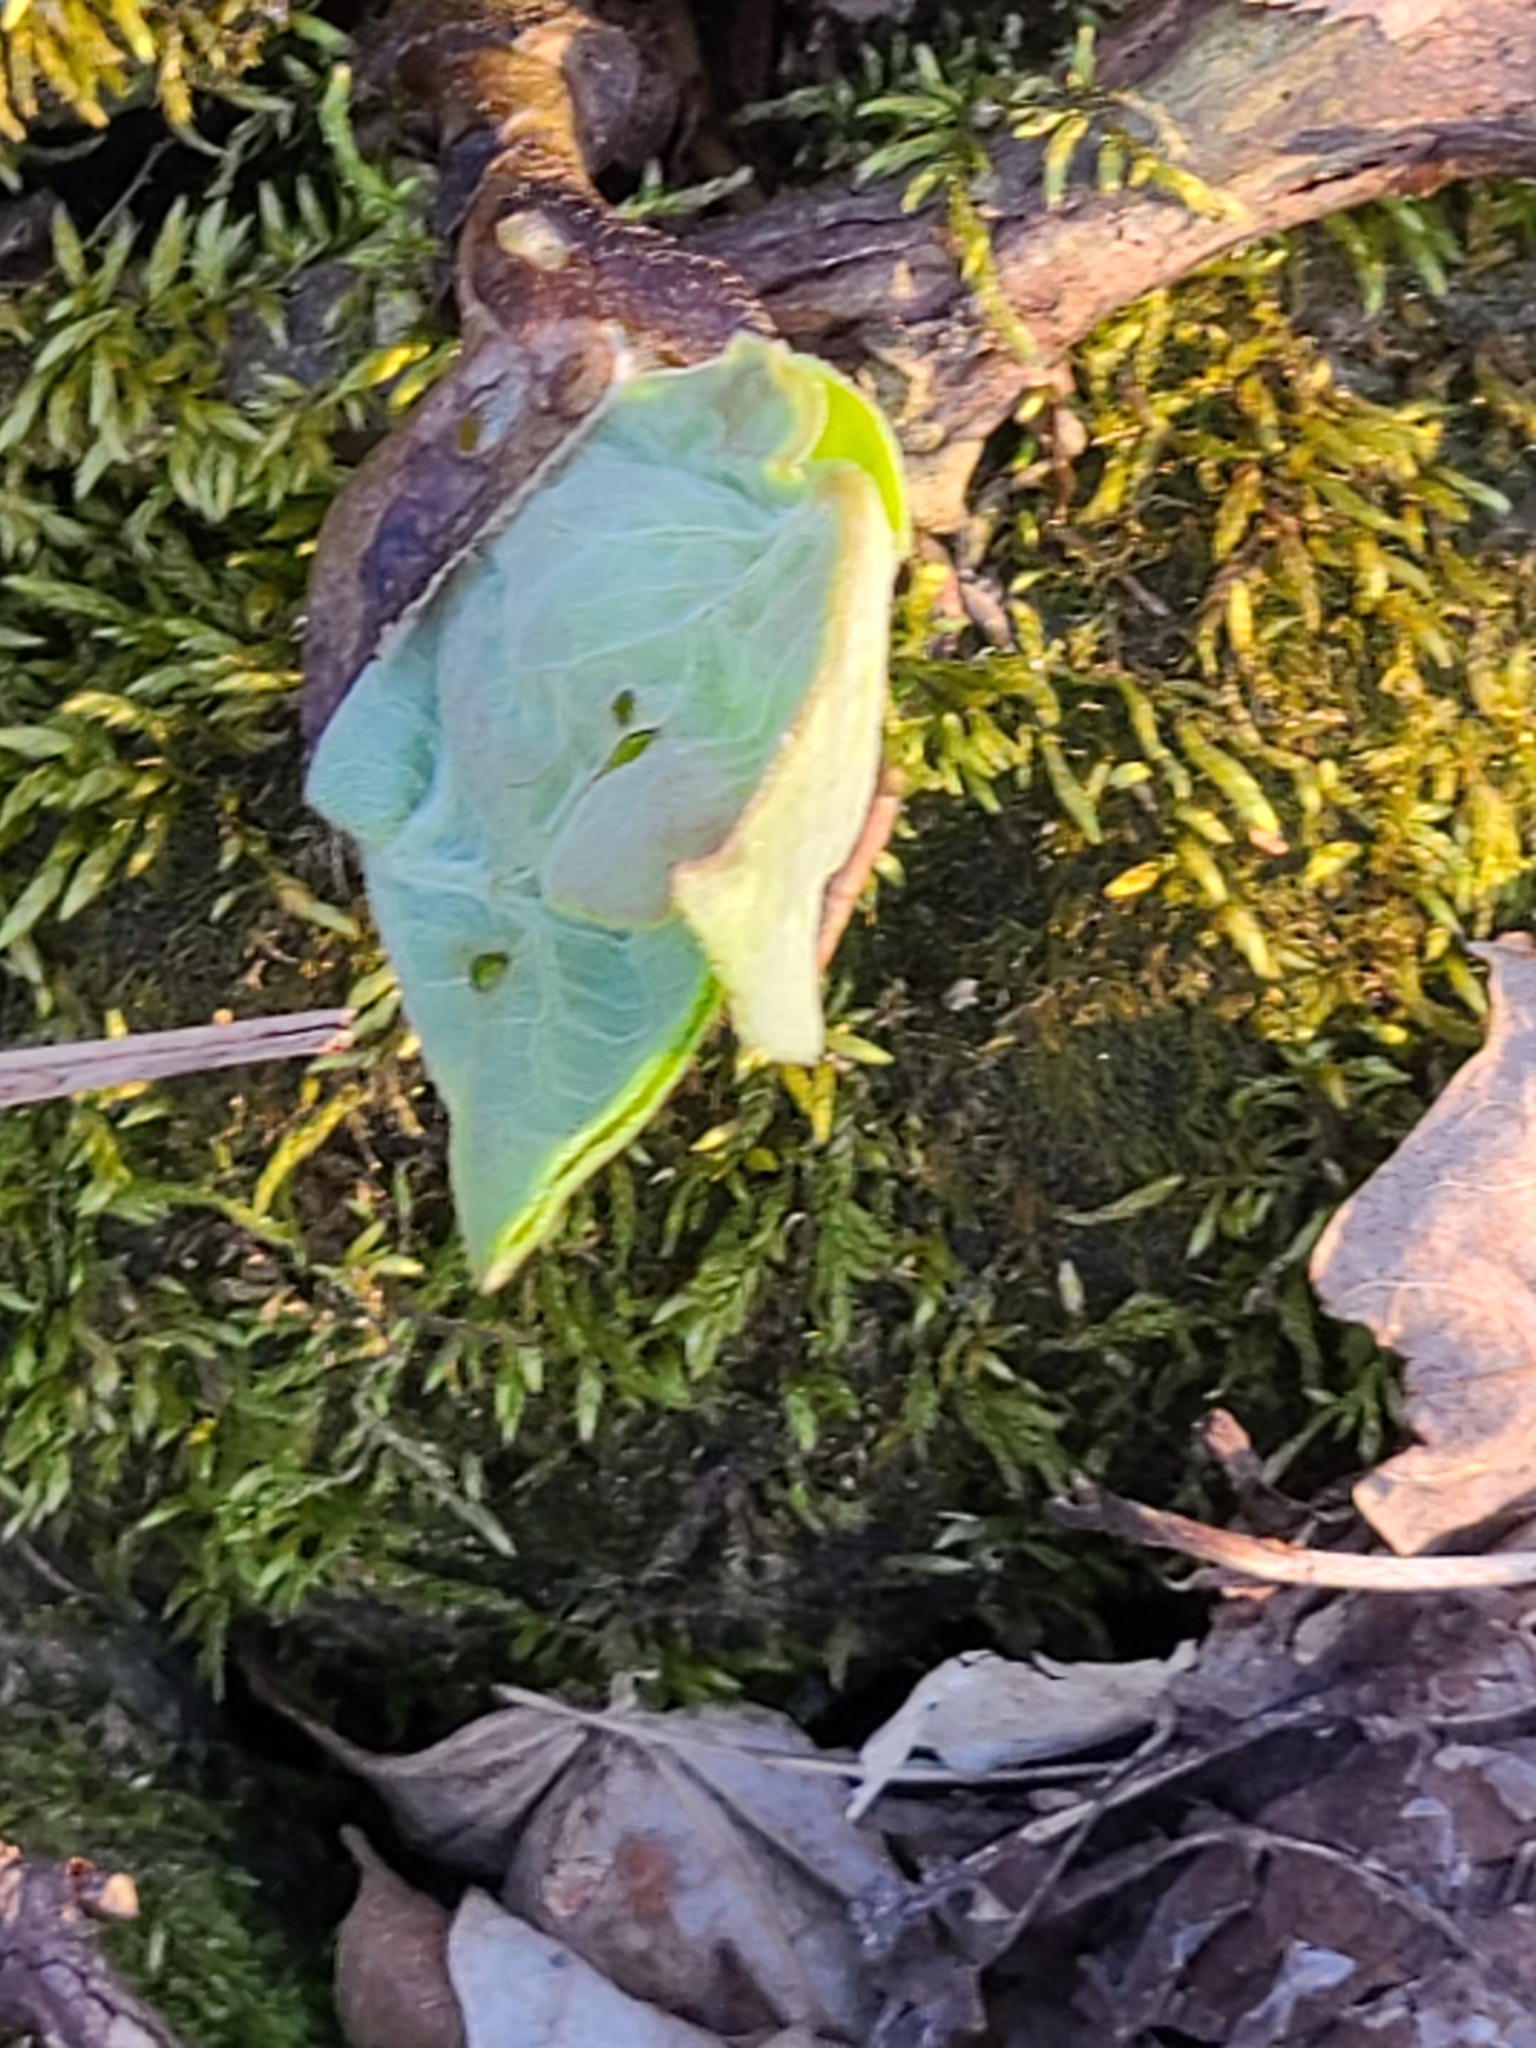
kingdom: Plantae
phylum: Tracheophyta
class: Magnoliopsida
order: Piperales
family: Aristolochiaceae
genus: Asarum
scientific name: Asarum canadense
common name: Wild ginger
